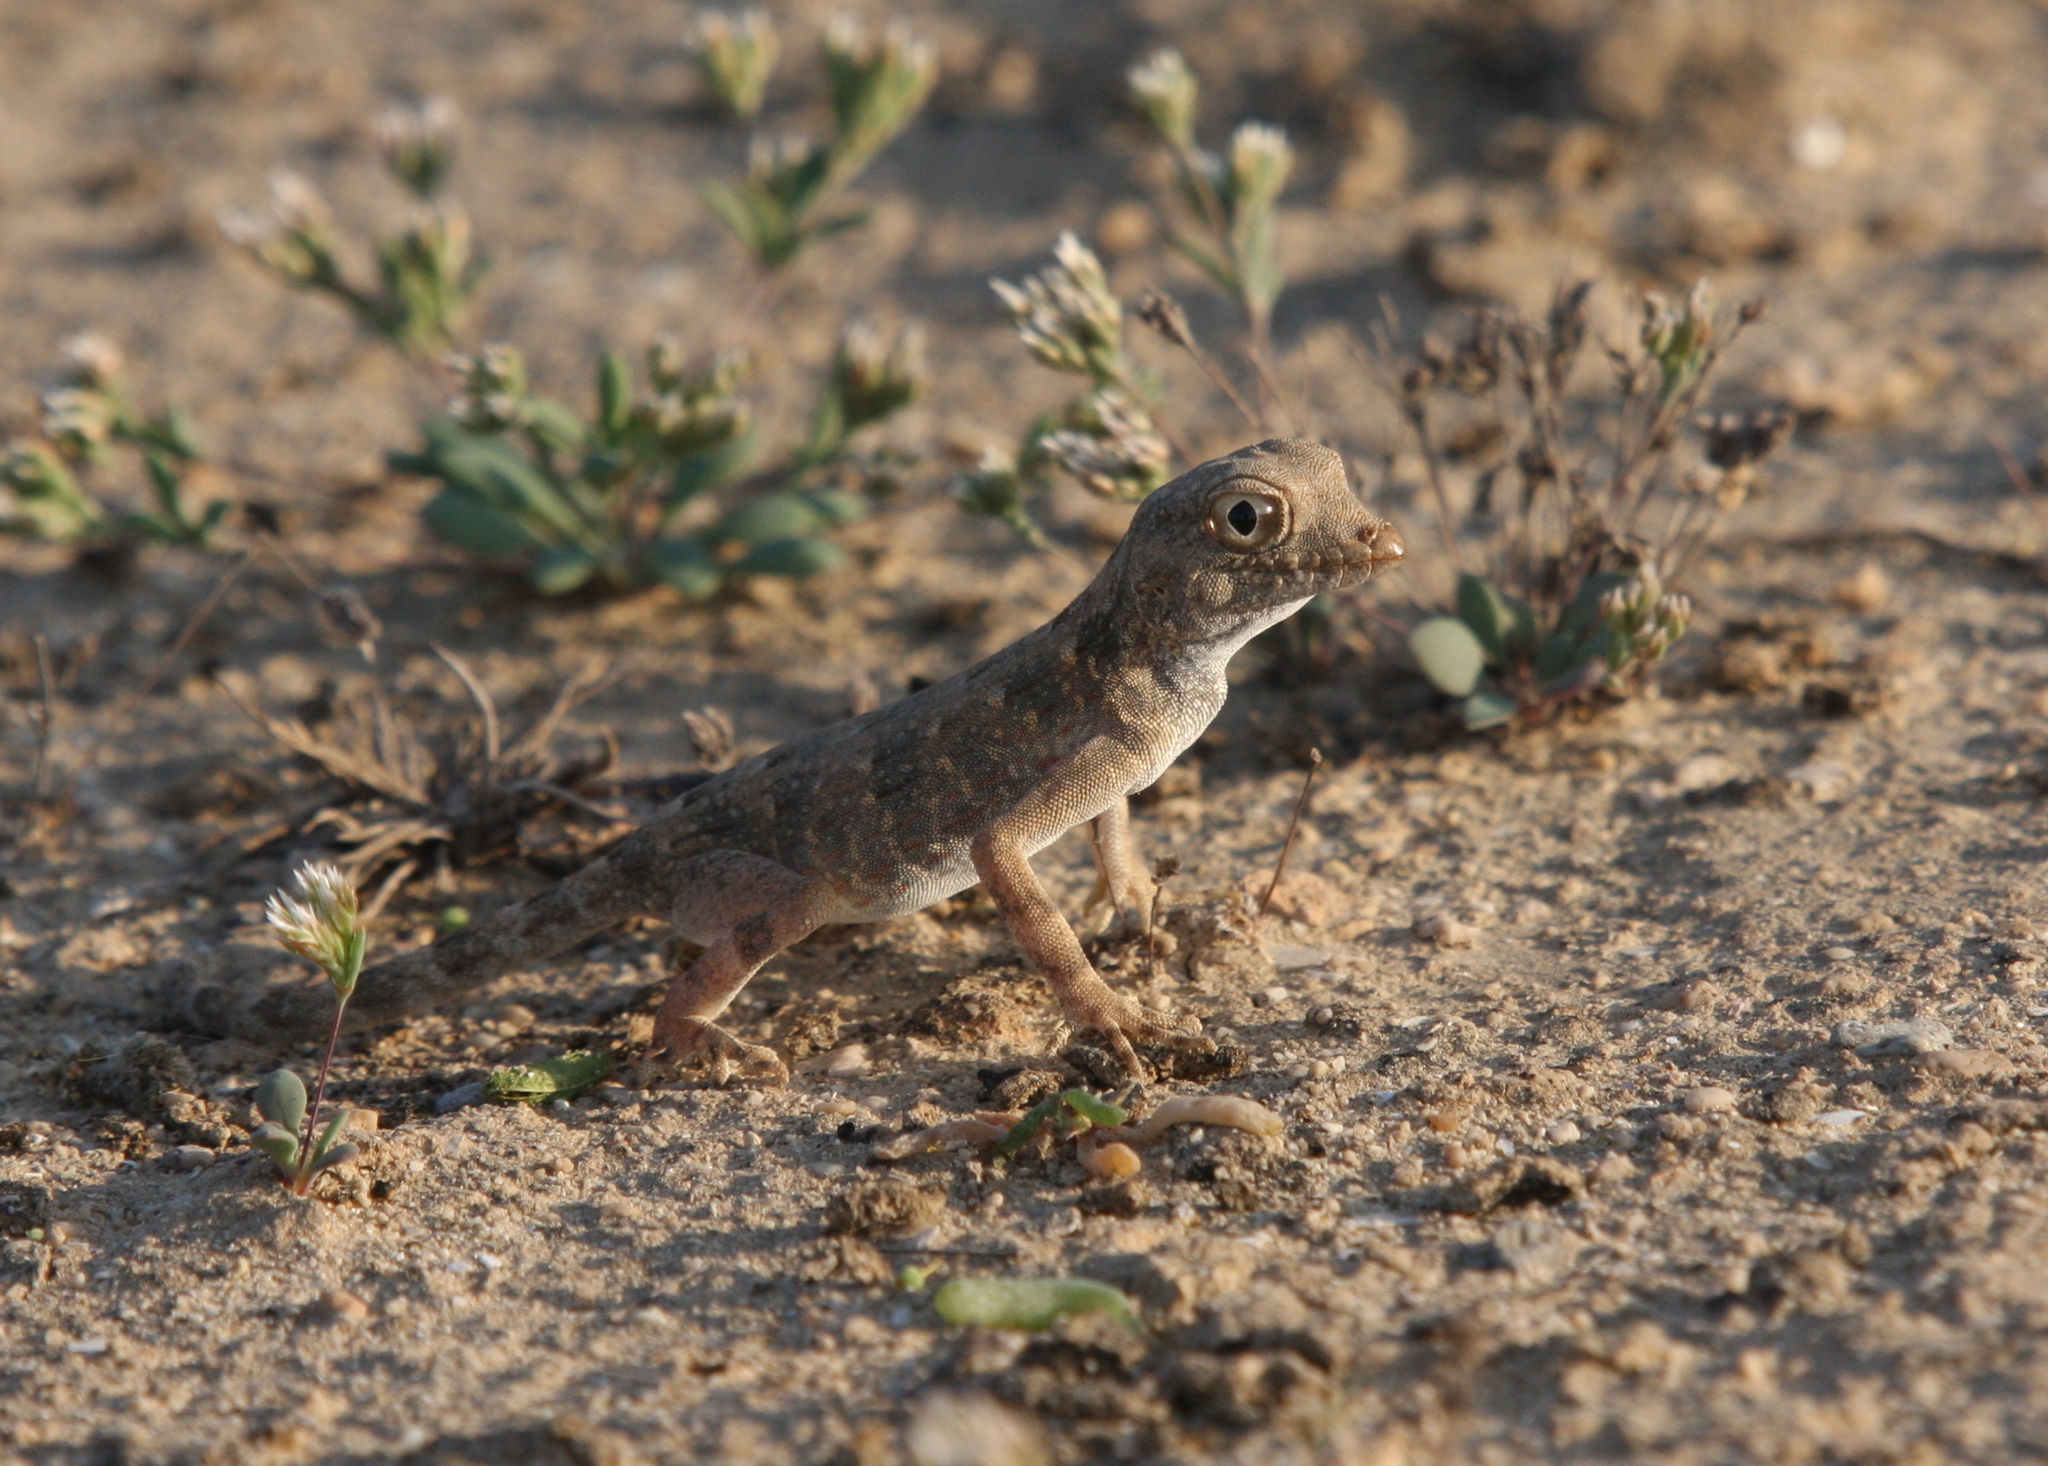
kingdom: Animalia
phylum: Chordata
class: Squamata
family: Sphaerodactylidae
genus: Pristurus
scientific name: Pristurus carteri
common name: Carter's rock gecko
